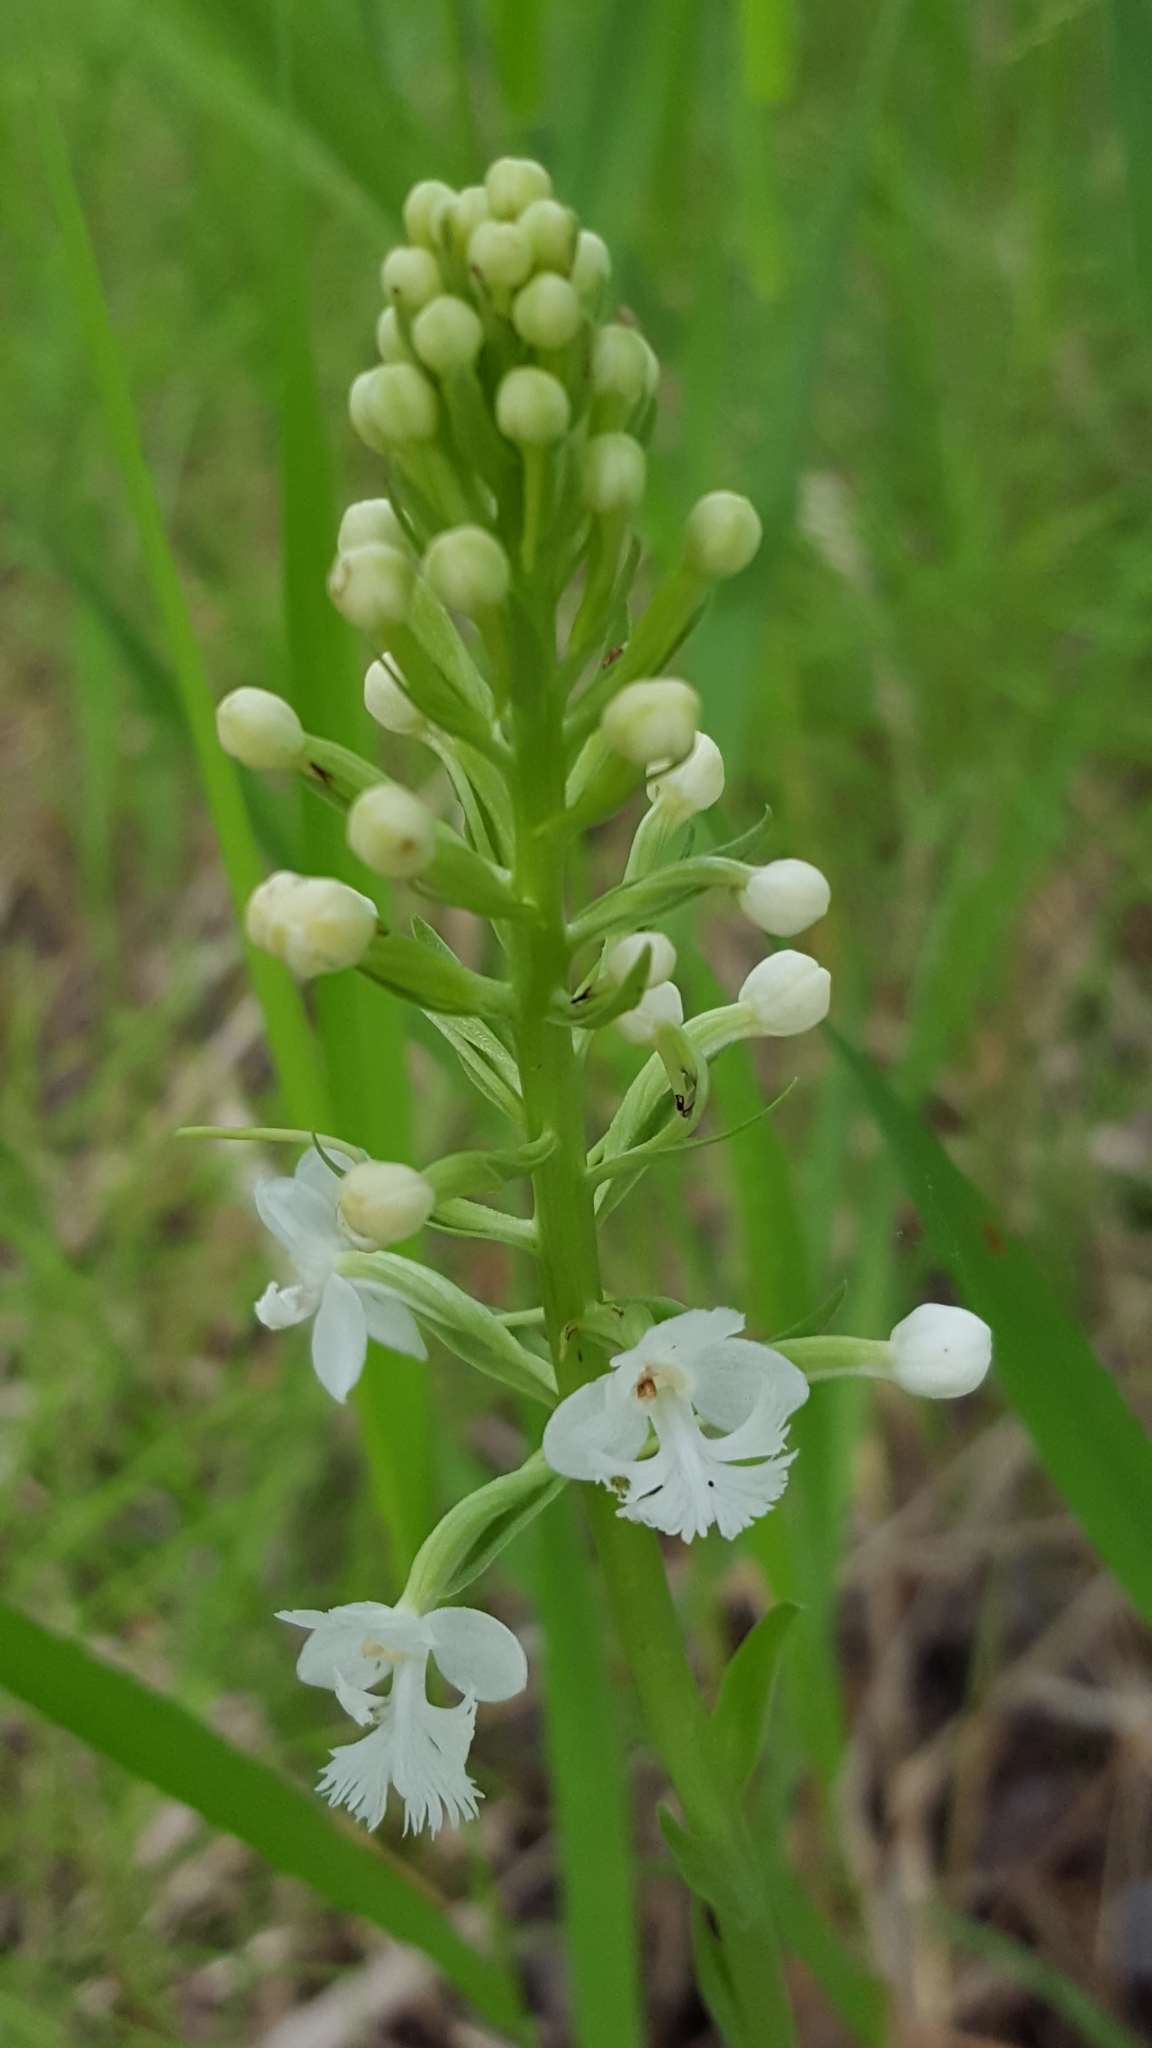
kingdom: Plantae
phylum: Tracheophyta
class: Liliopsida
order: Asparagales
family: Orchidaceae
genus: Platanthera
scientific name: Platanthera psycodes
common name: Lesser purple fringed orchid
